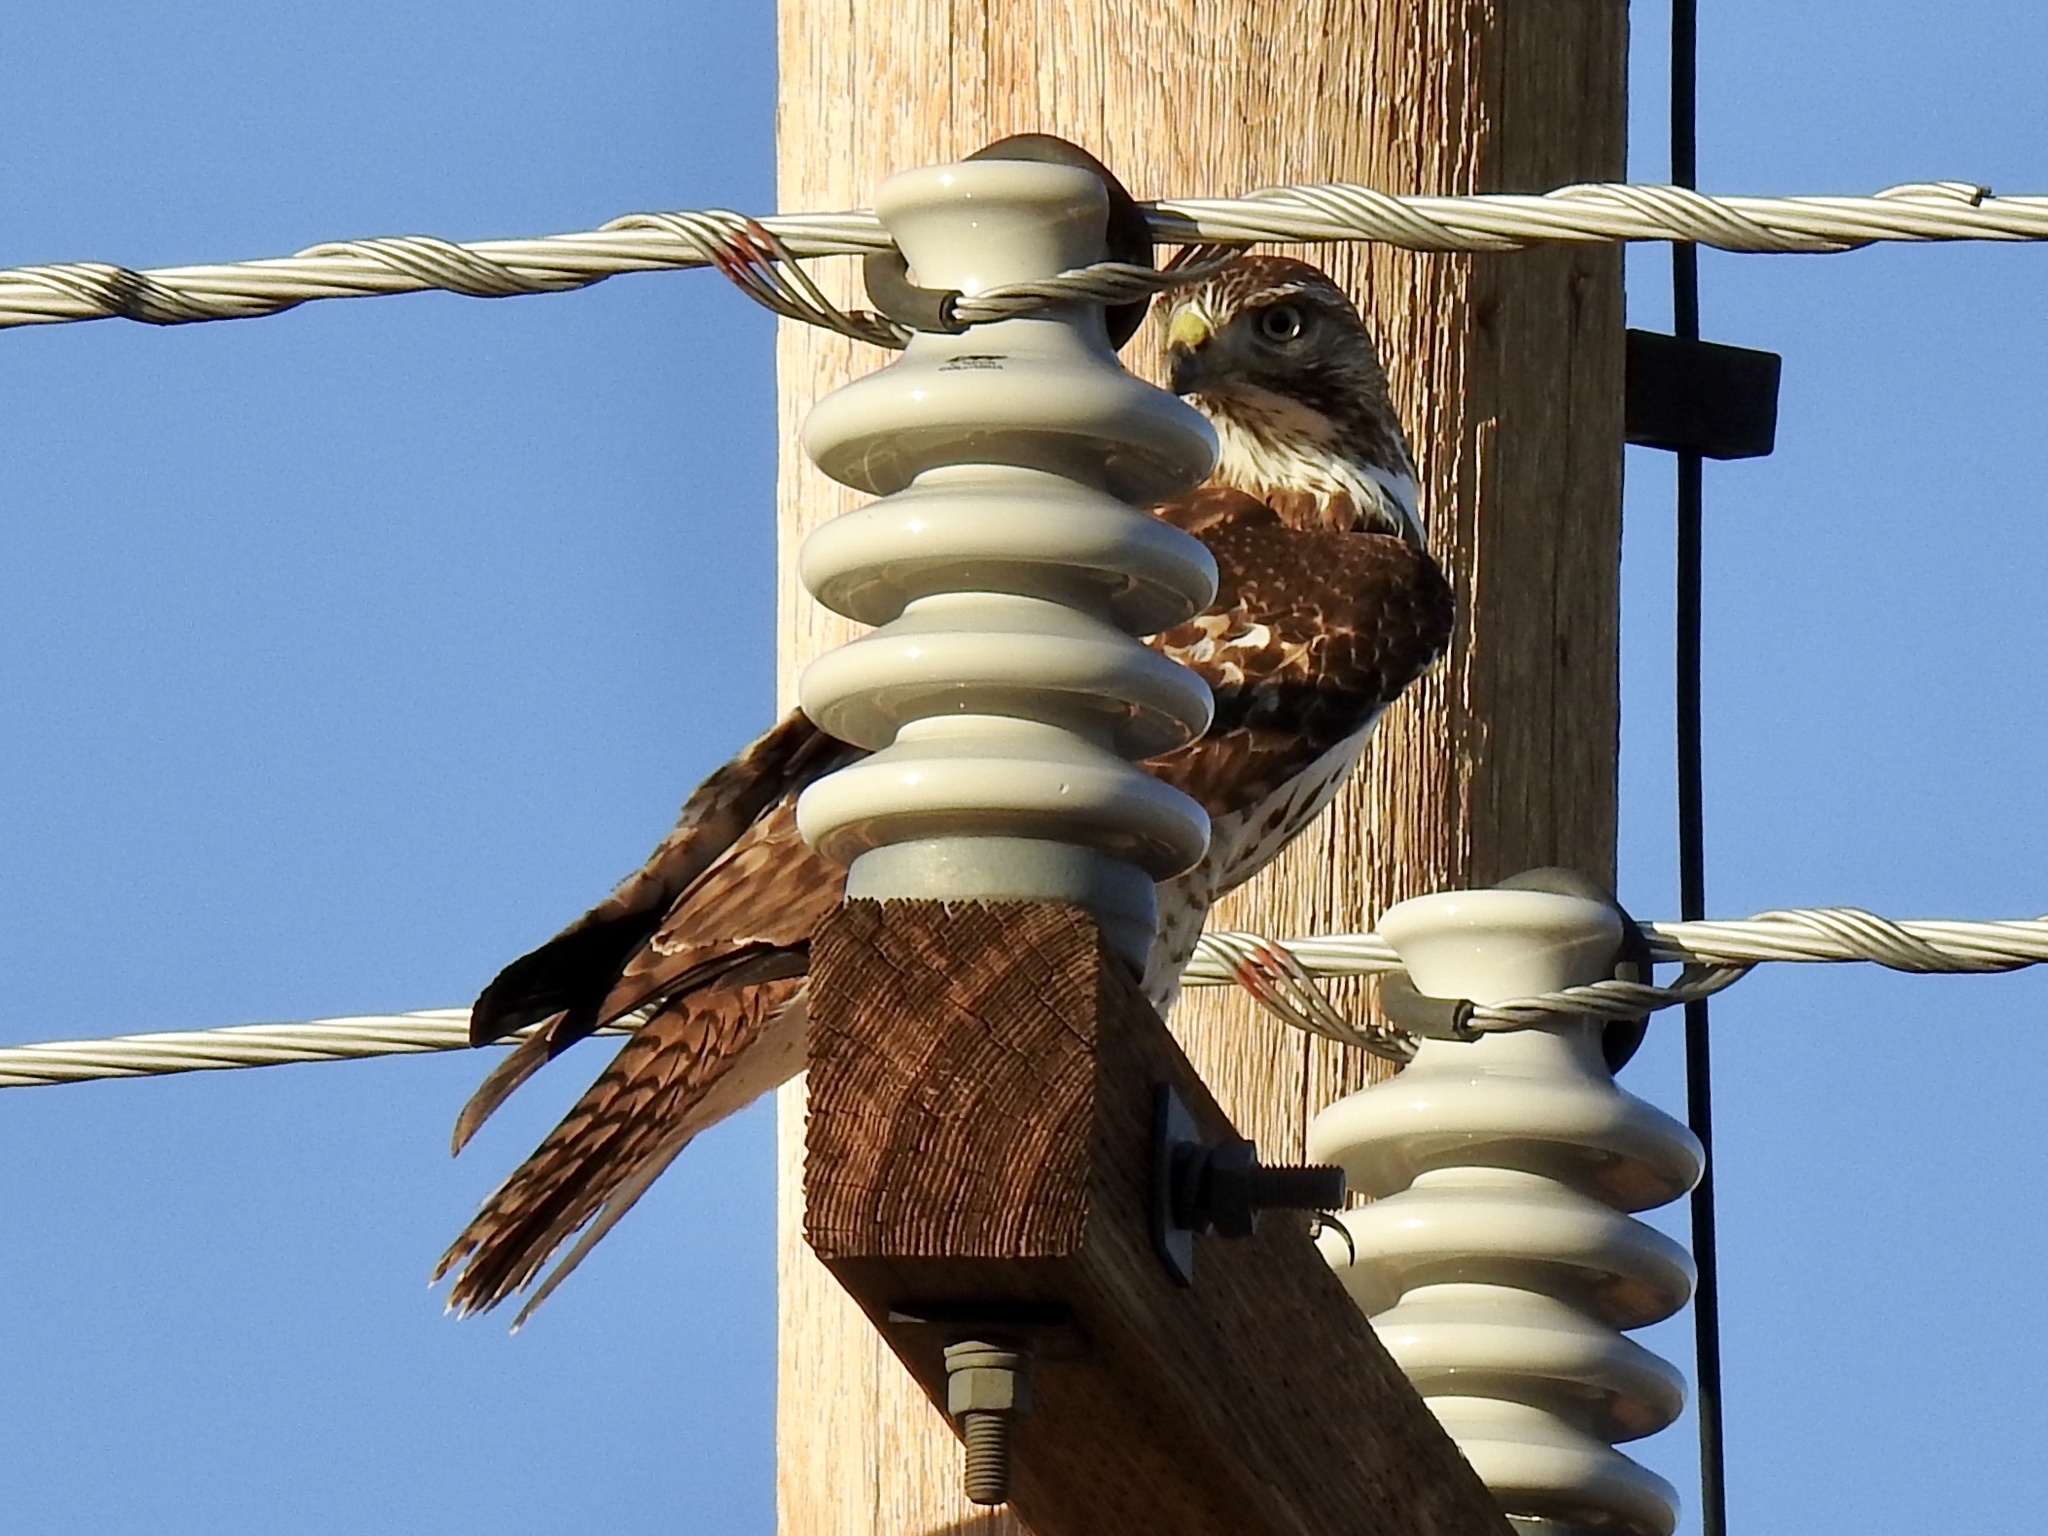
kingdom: Animalia
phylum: Chordata
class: Aves
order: Accipitriformes
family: Accipitridae
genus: Buteo
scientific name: Buteo jamaicensis
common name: Red-tailed hawk
